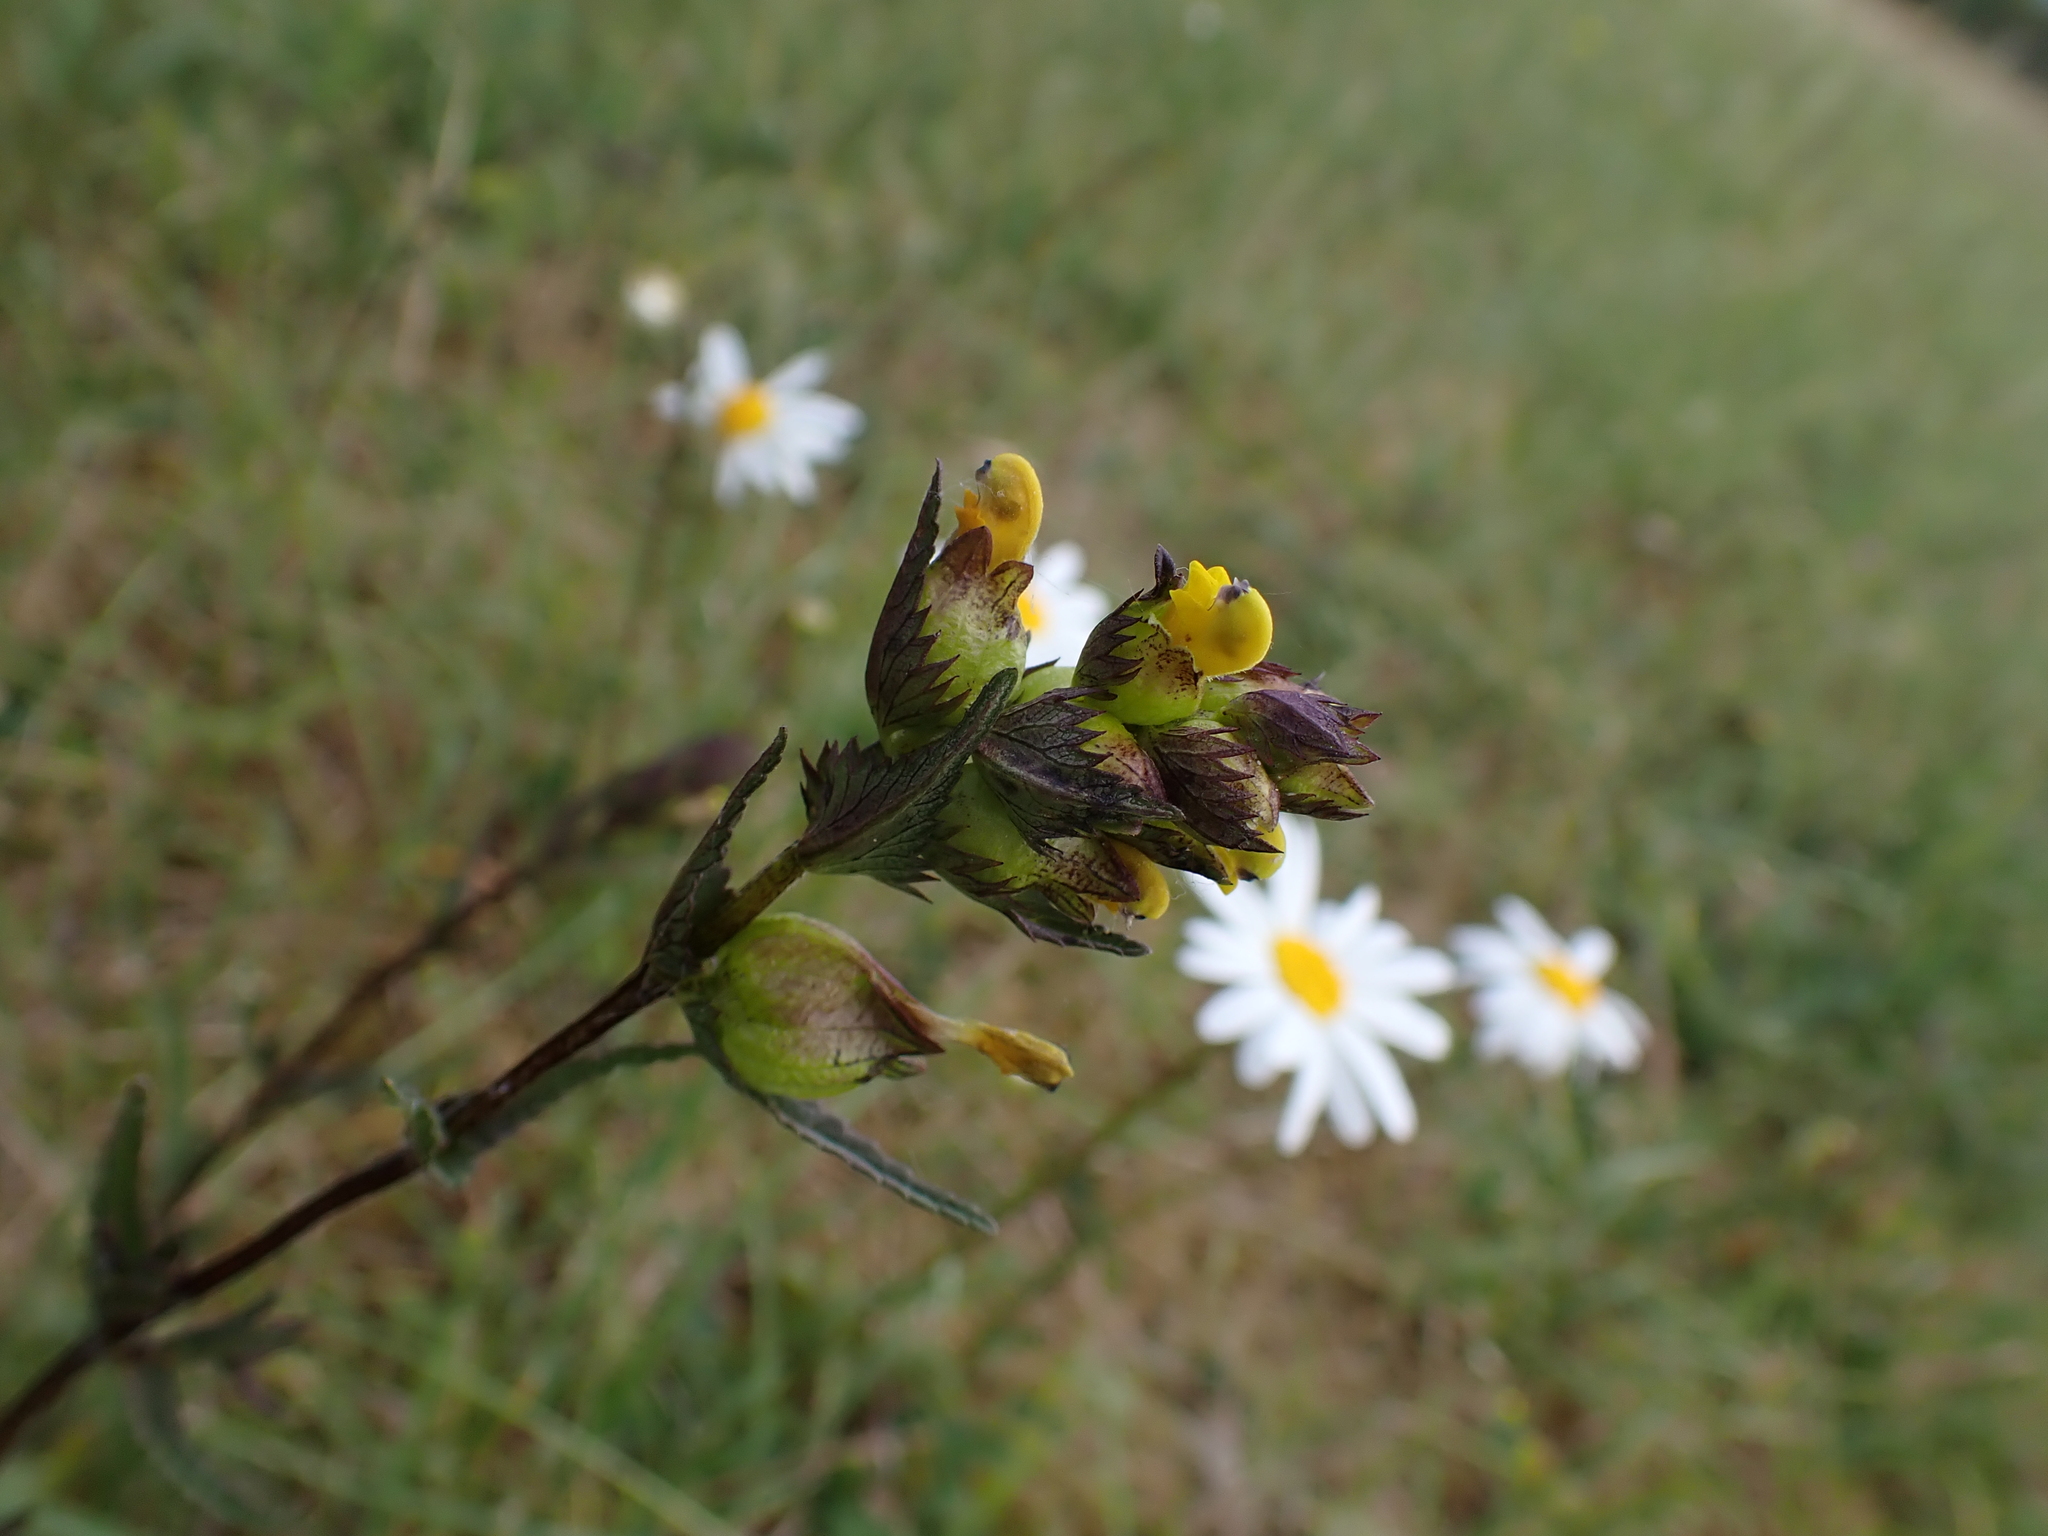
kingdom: Plantae
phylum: Tracheophyta
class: Magnoliopsida
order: Lamiales
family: Orobanchaceae
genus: Rhinanthus
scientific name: Rhinanthus minor
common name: Yellow-rattle
